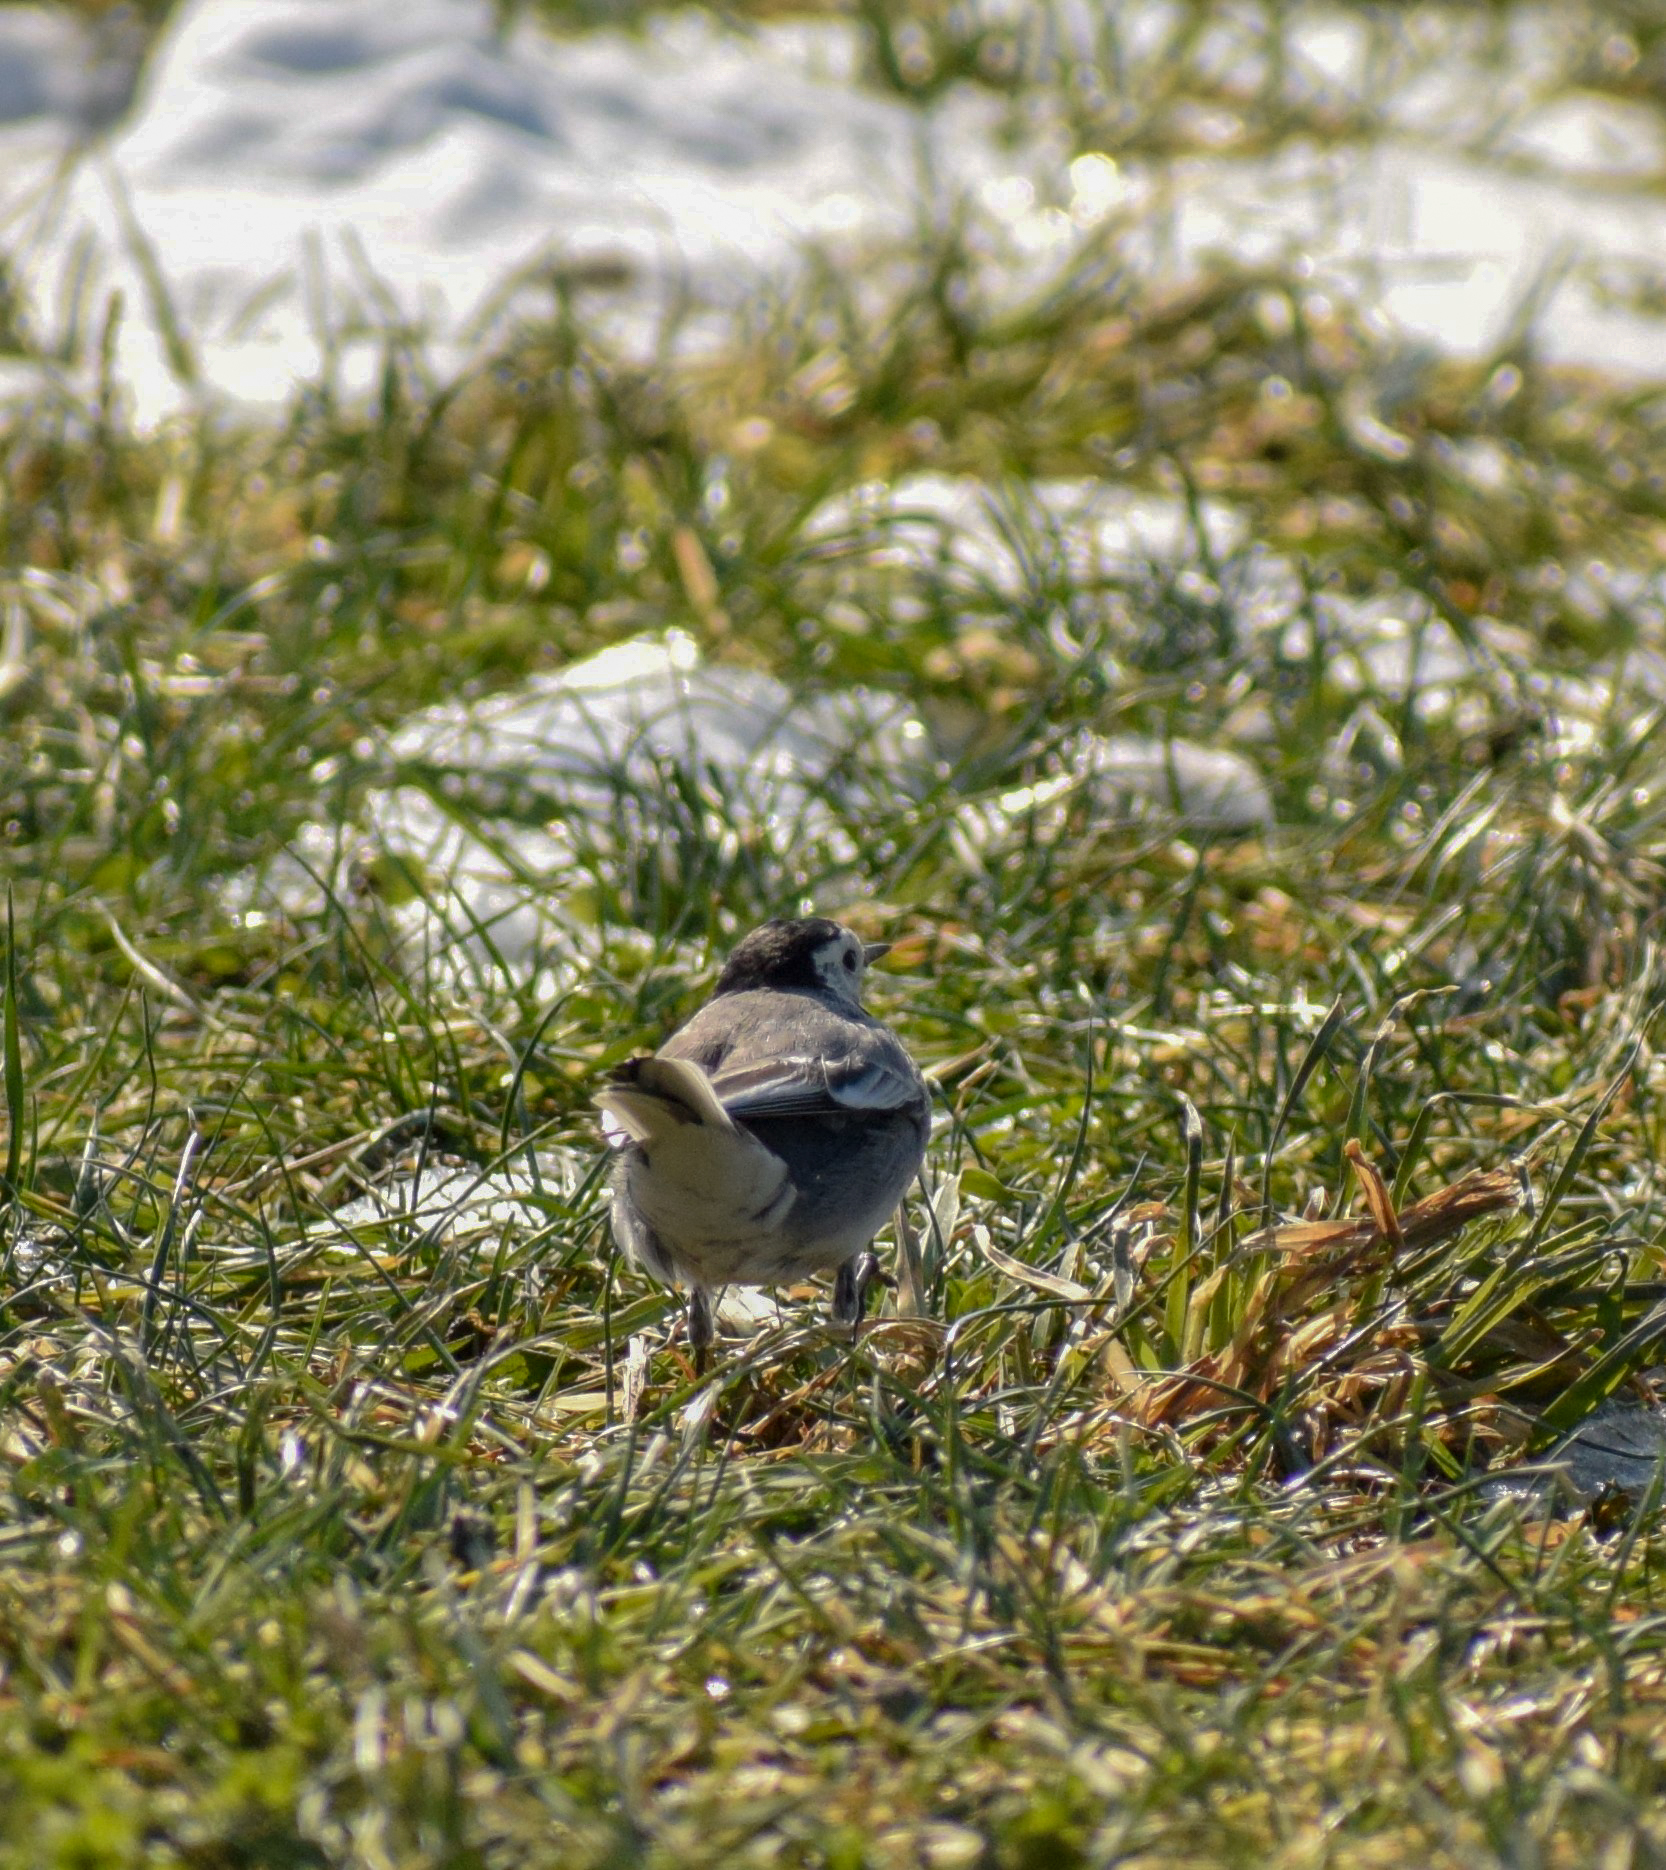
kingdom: Animalia
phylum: Chordata
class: Aves
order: Passeriformes
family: Motacillidae
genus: Motacilla
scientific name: Motacilla alba
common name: White wagtail
